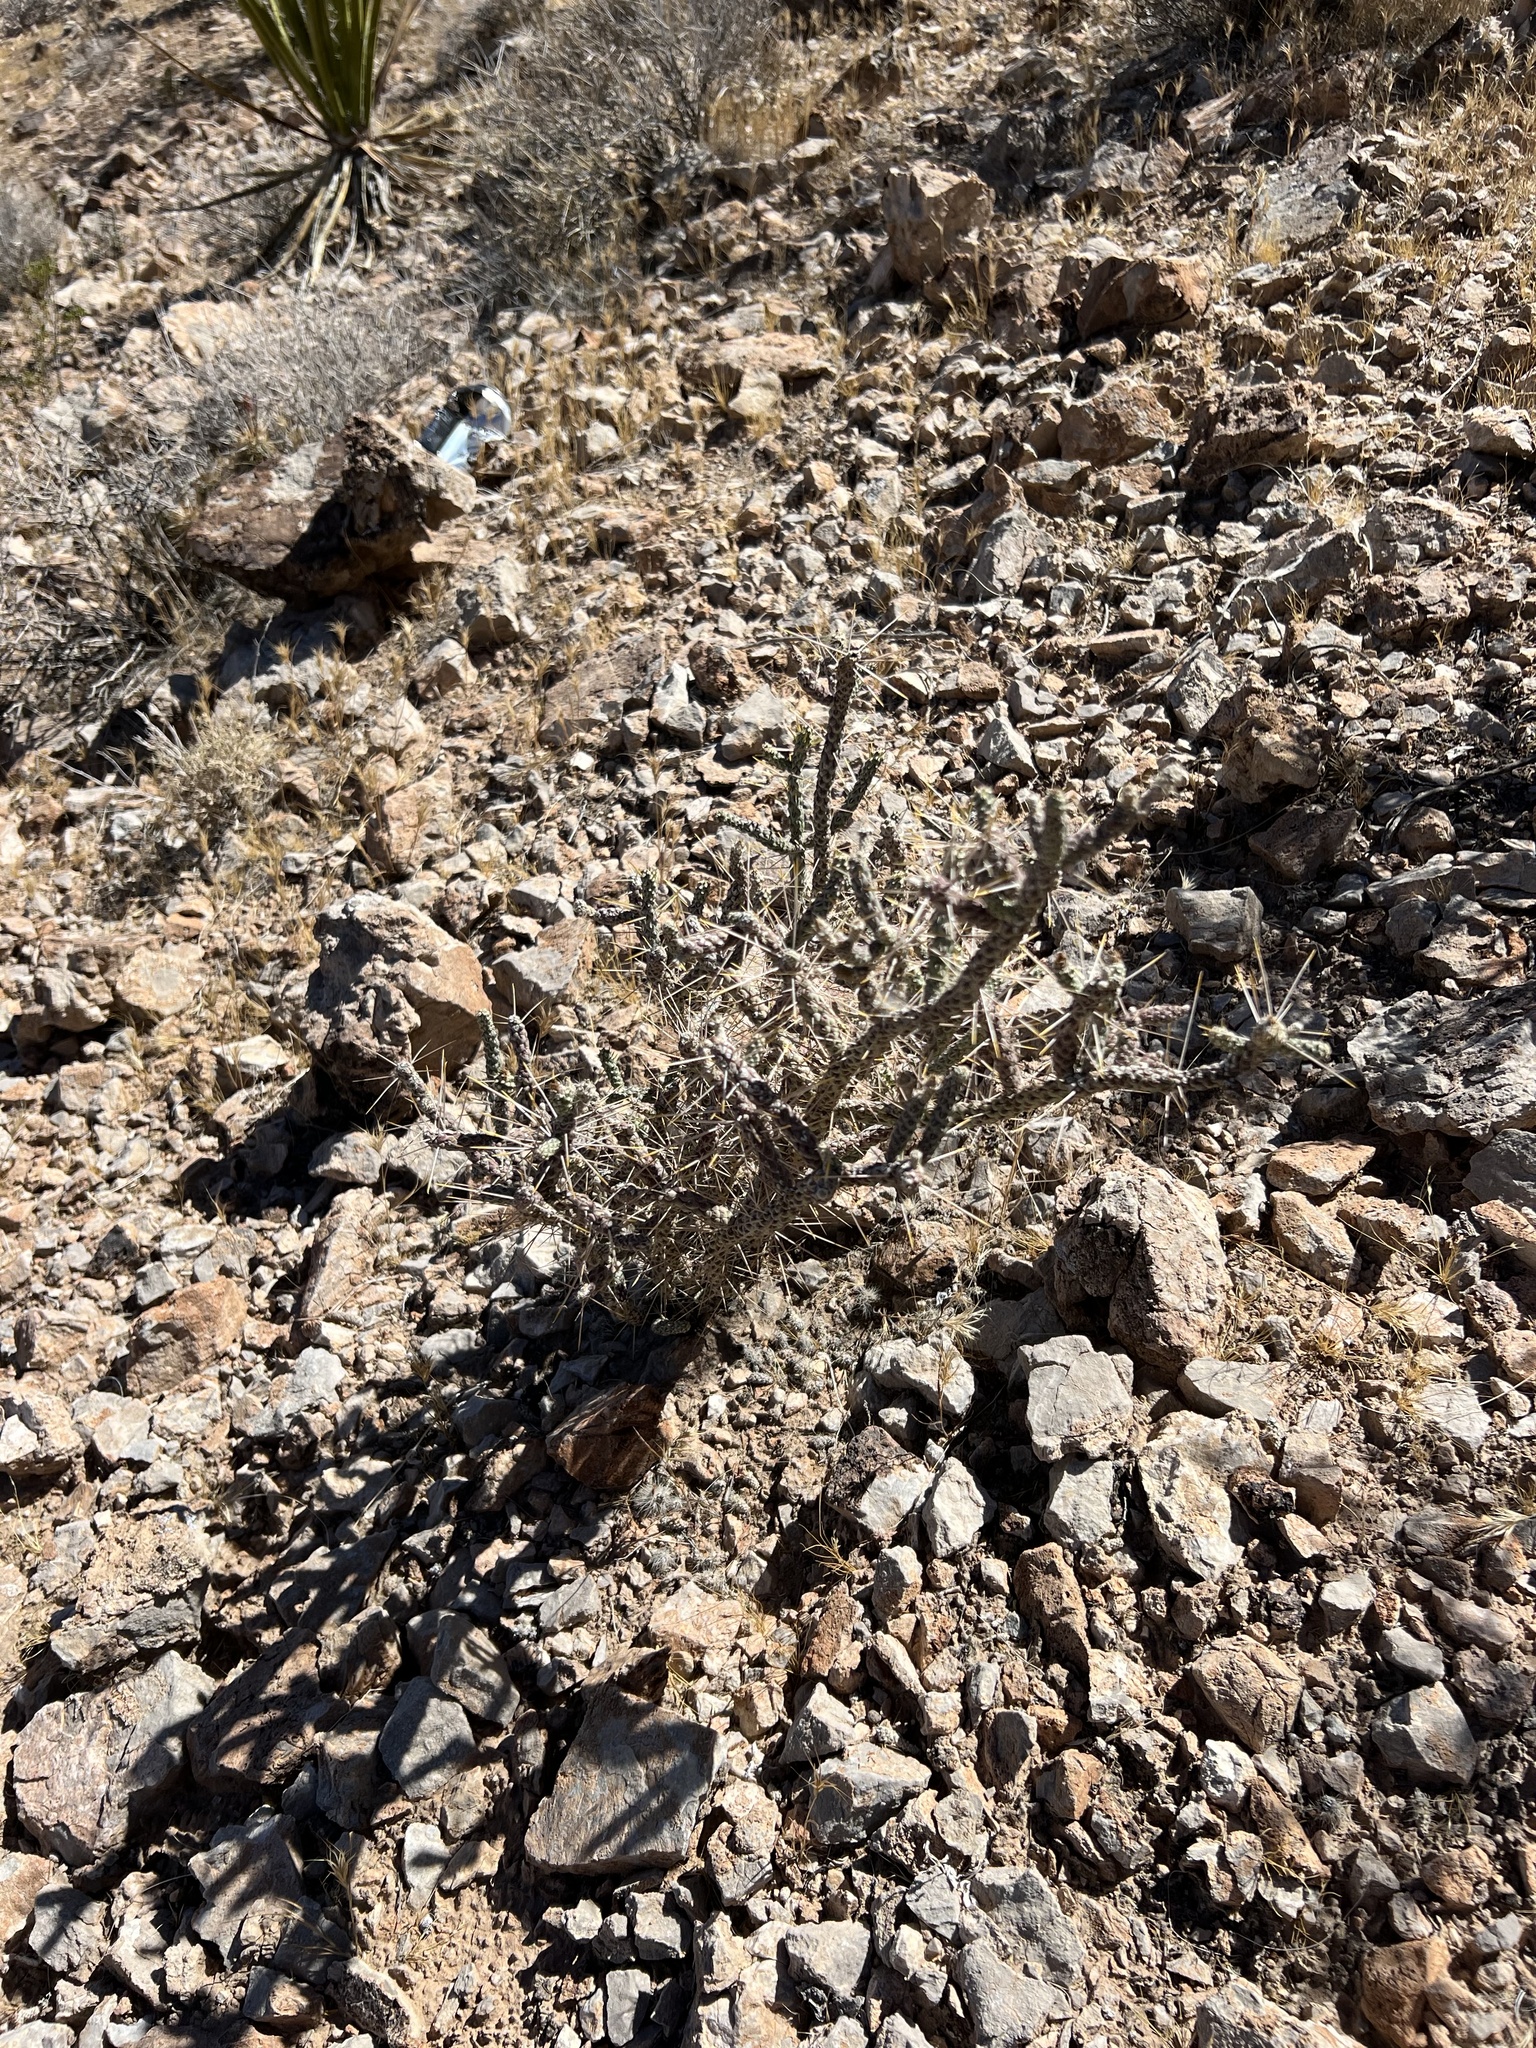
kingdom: Plantae
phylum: Tracheophyta
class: Magnoliopsida
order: Caryophyllales
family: Cactaceae
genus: Cylindropuntia
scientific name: Cylindropuntia ramosissima
